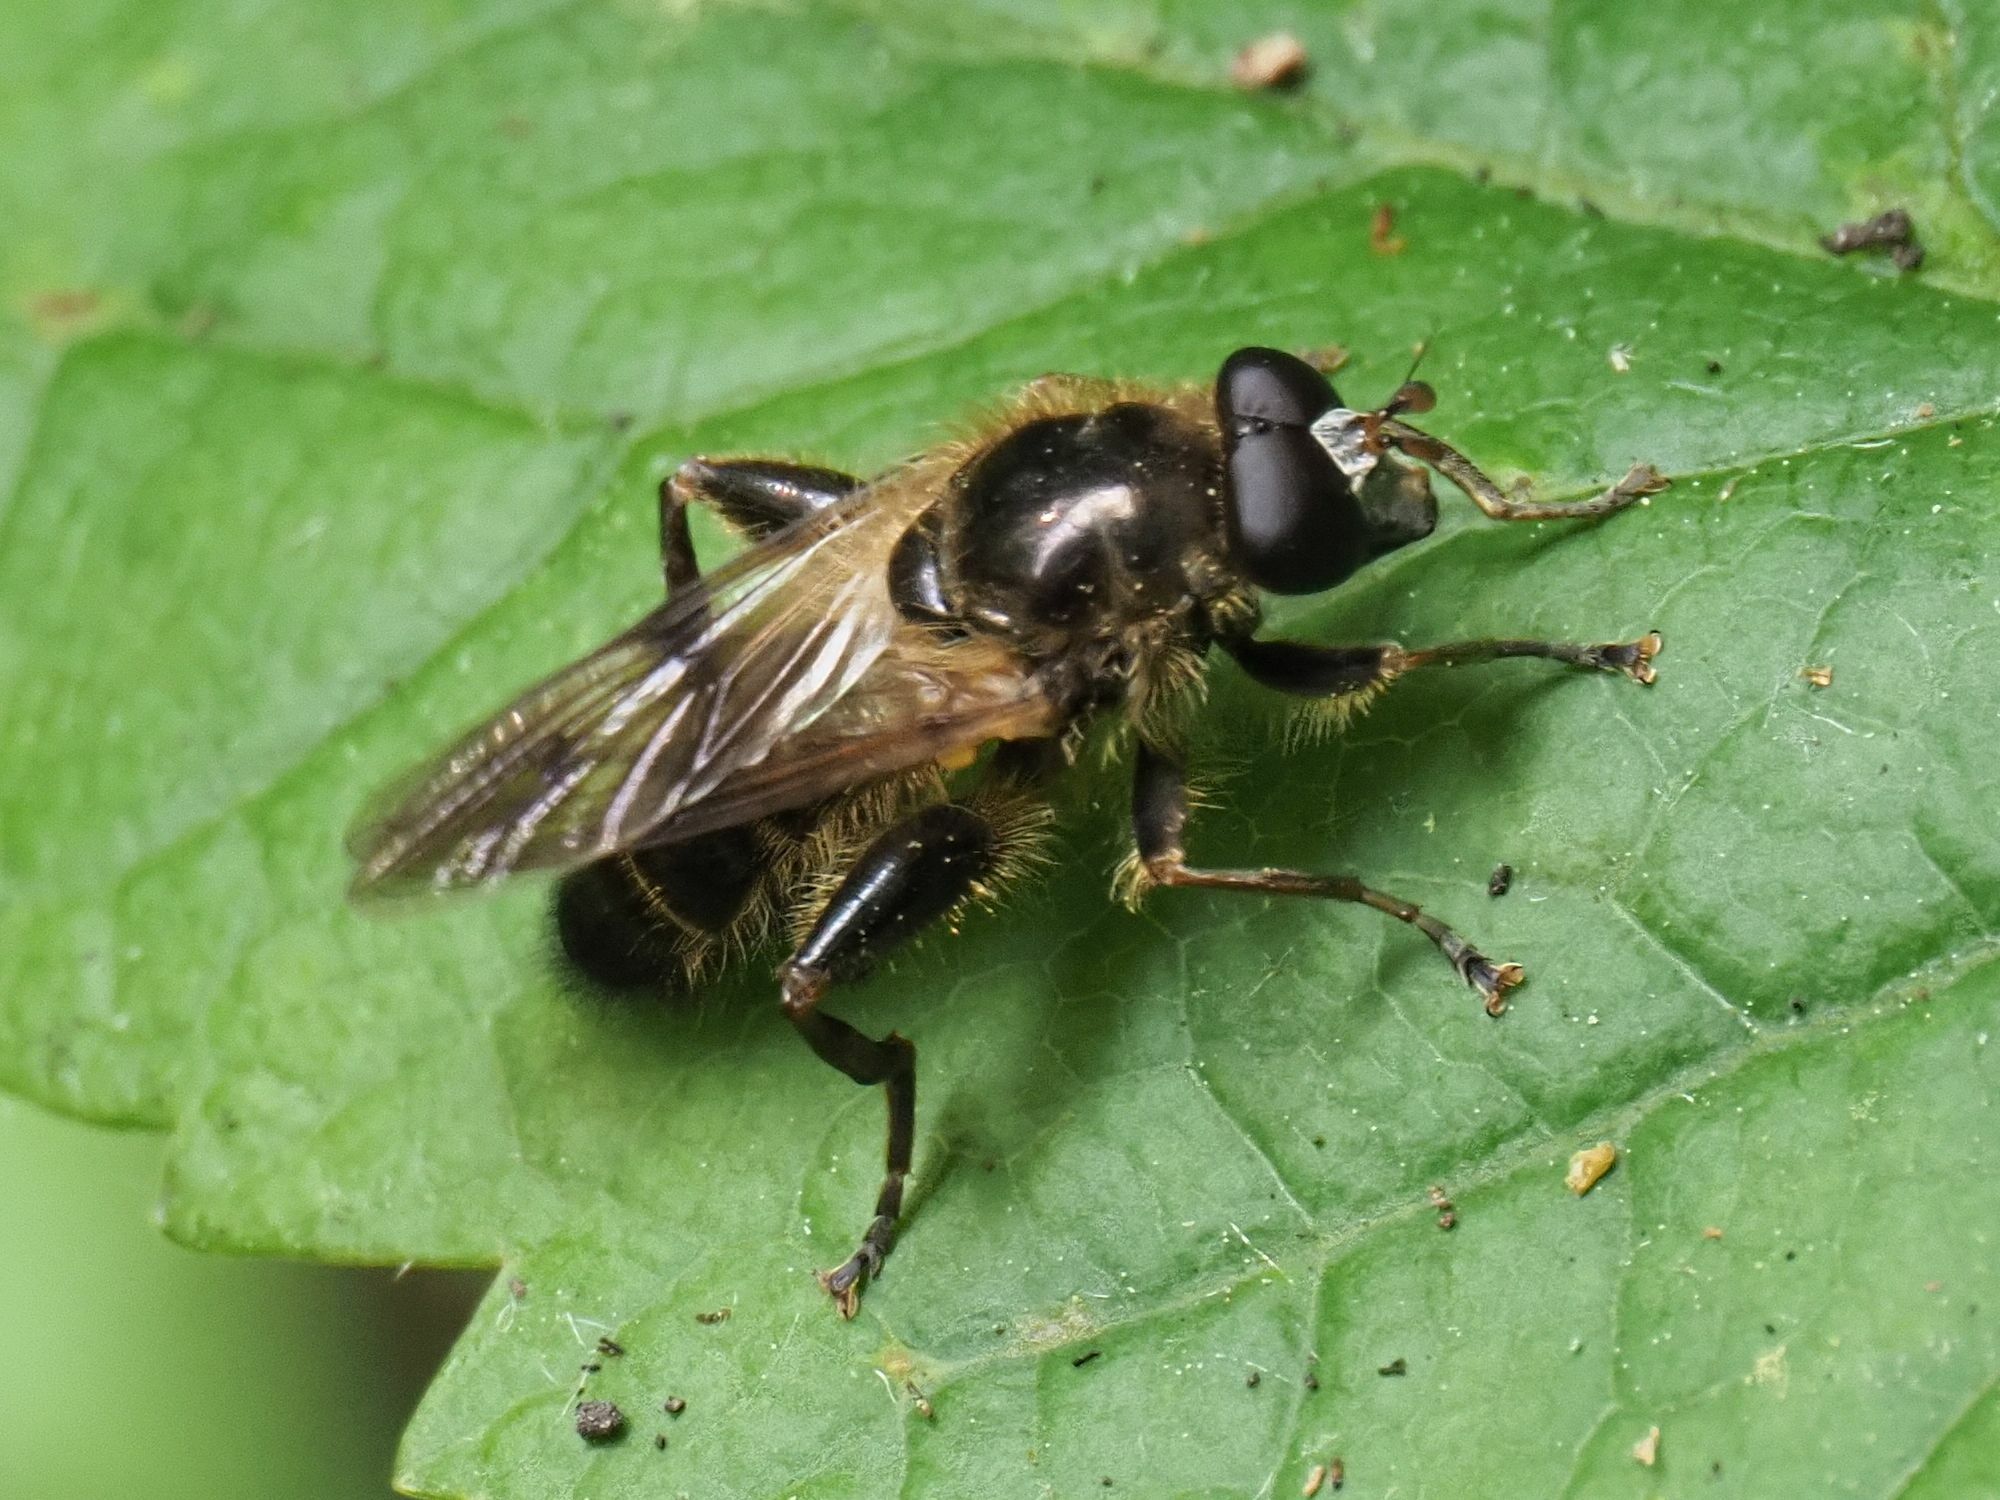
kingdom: Animalia
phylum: Arthropoda
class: Insecta
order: Diptera
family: Syrphidae
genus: Brachypalpus
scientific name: Brachypalpus valgus
